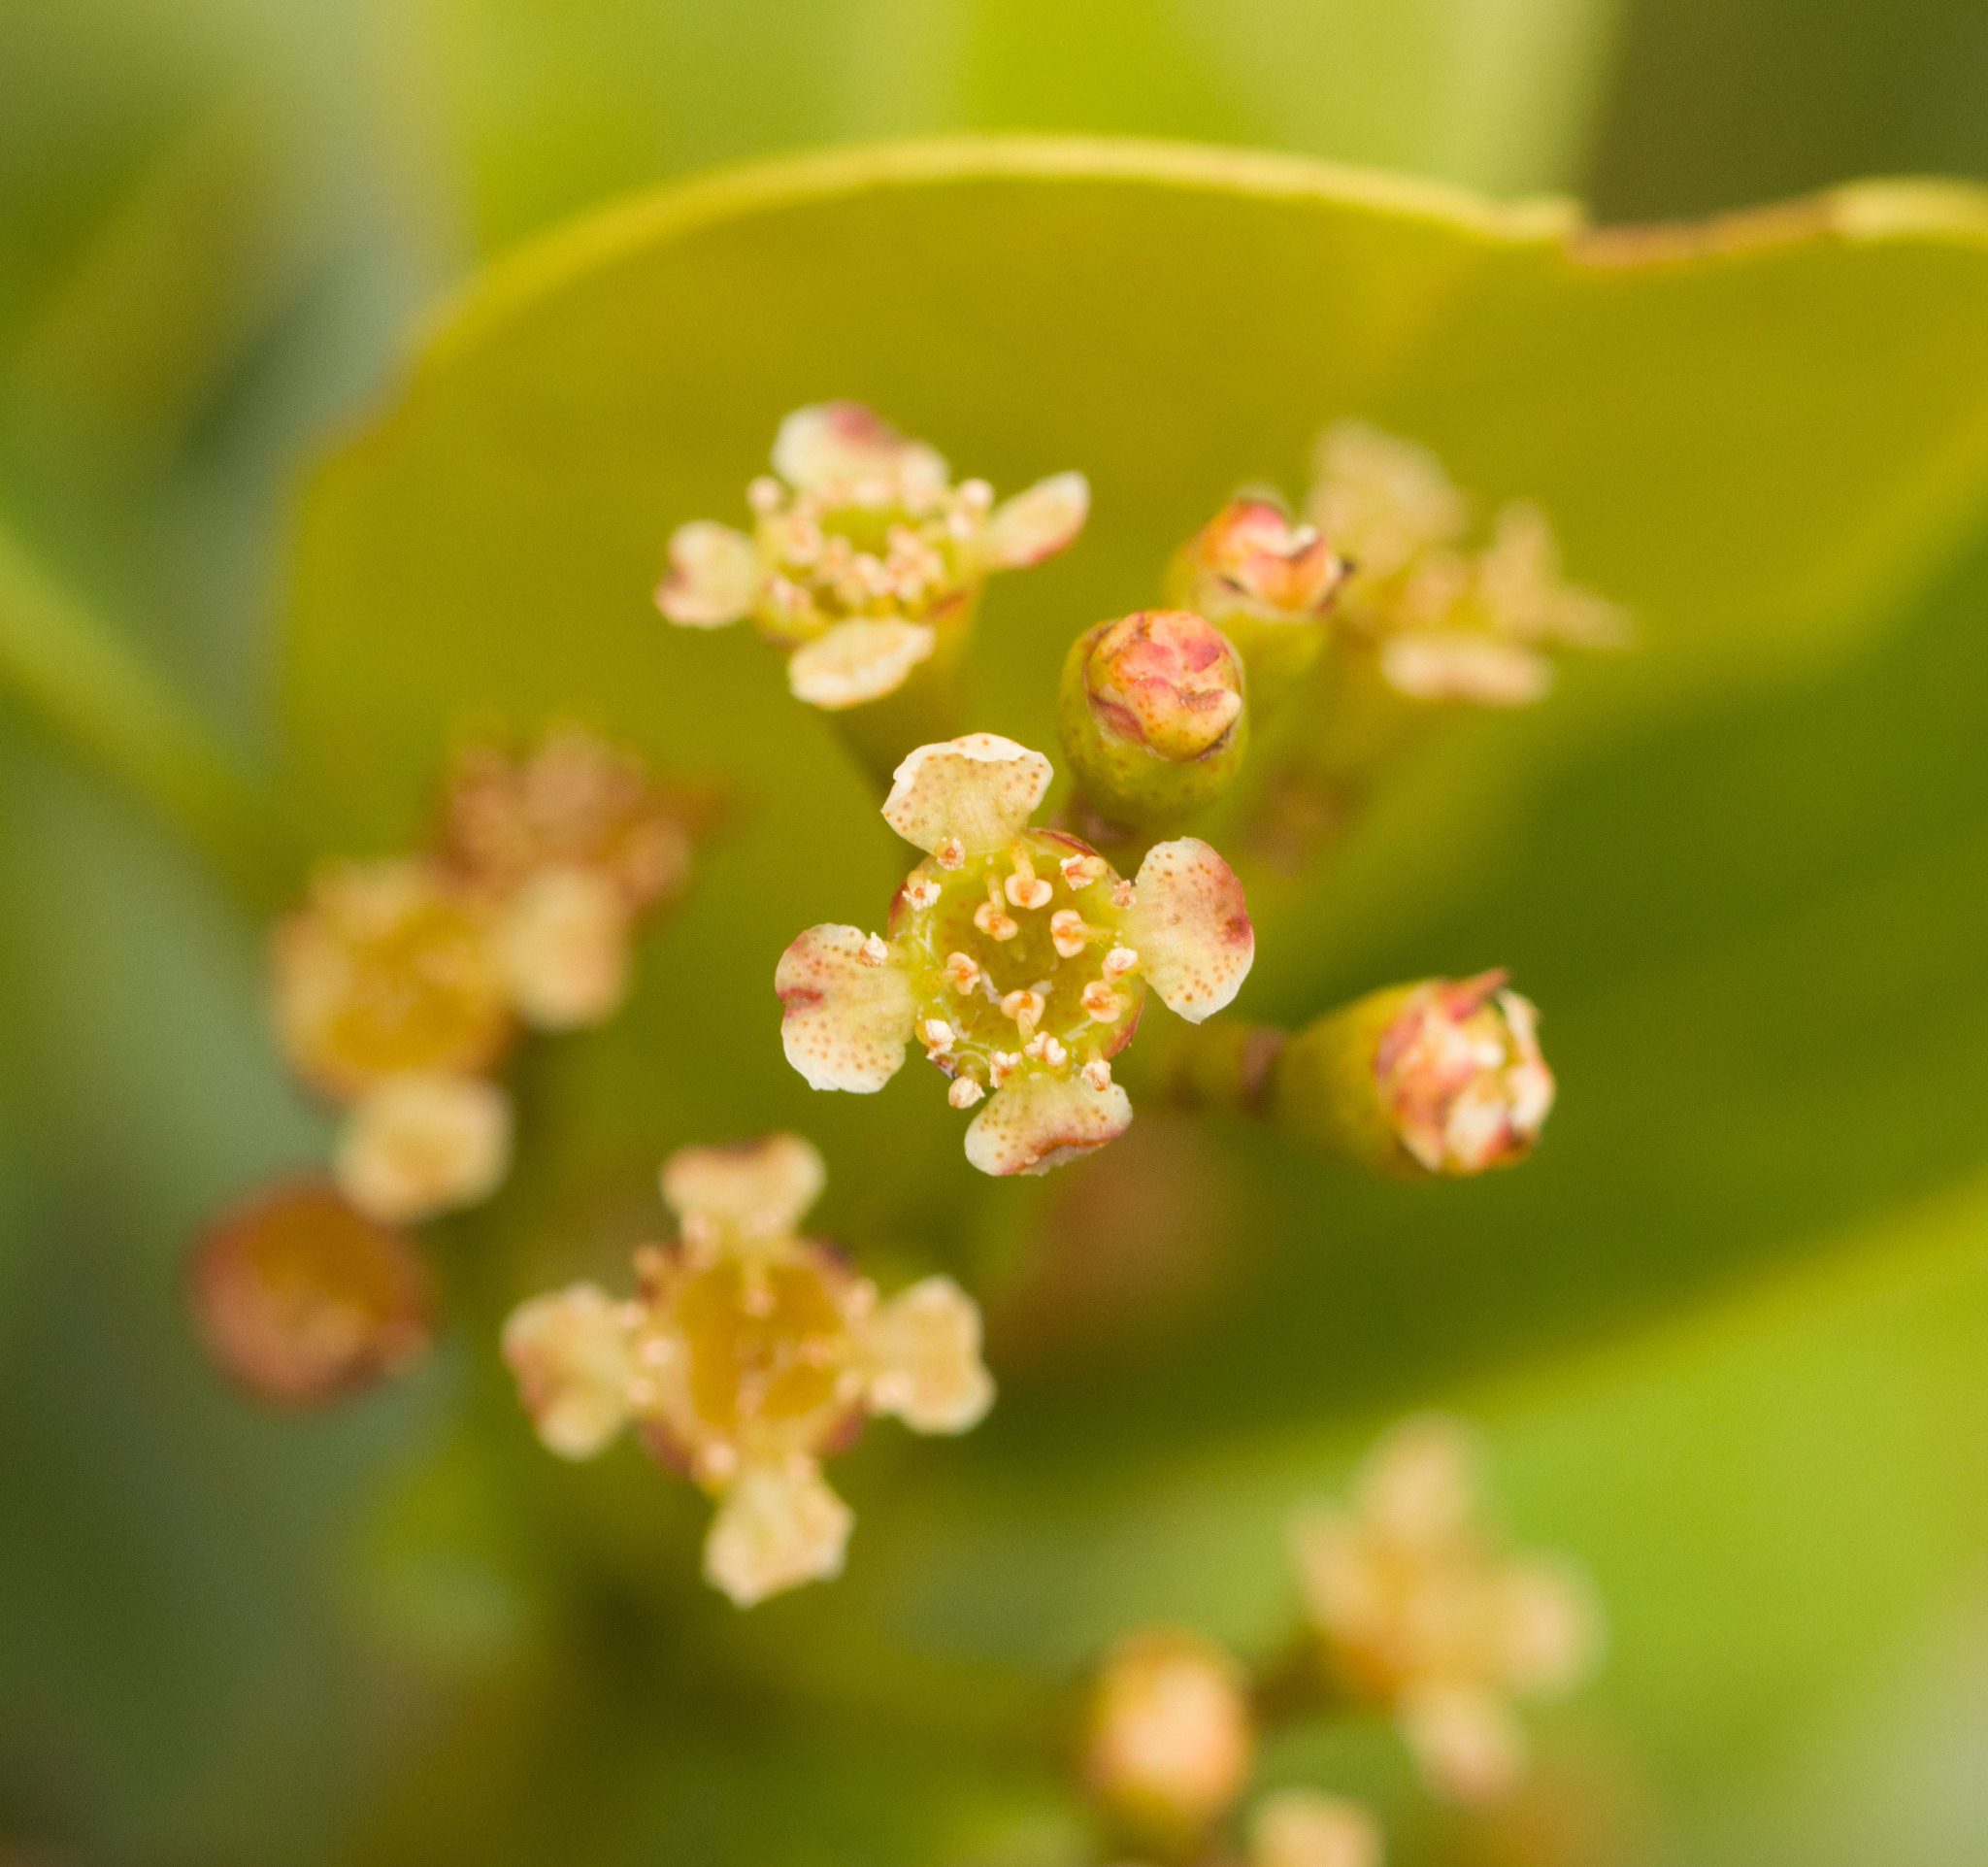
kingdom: Plantae
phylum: Tracheophyta
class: Magnoliopsida
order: Myrtales
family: Myrtaceae
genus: Syzygium
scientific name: Syzygium sandwicense
